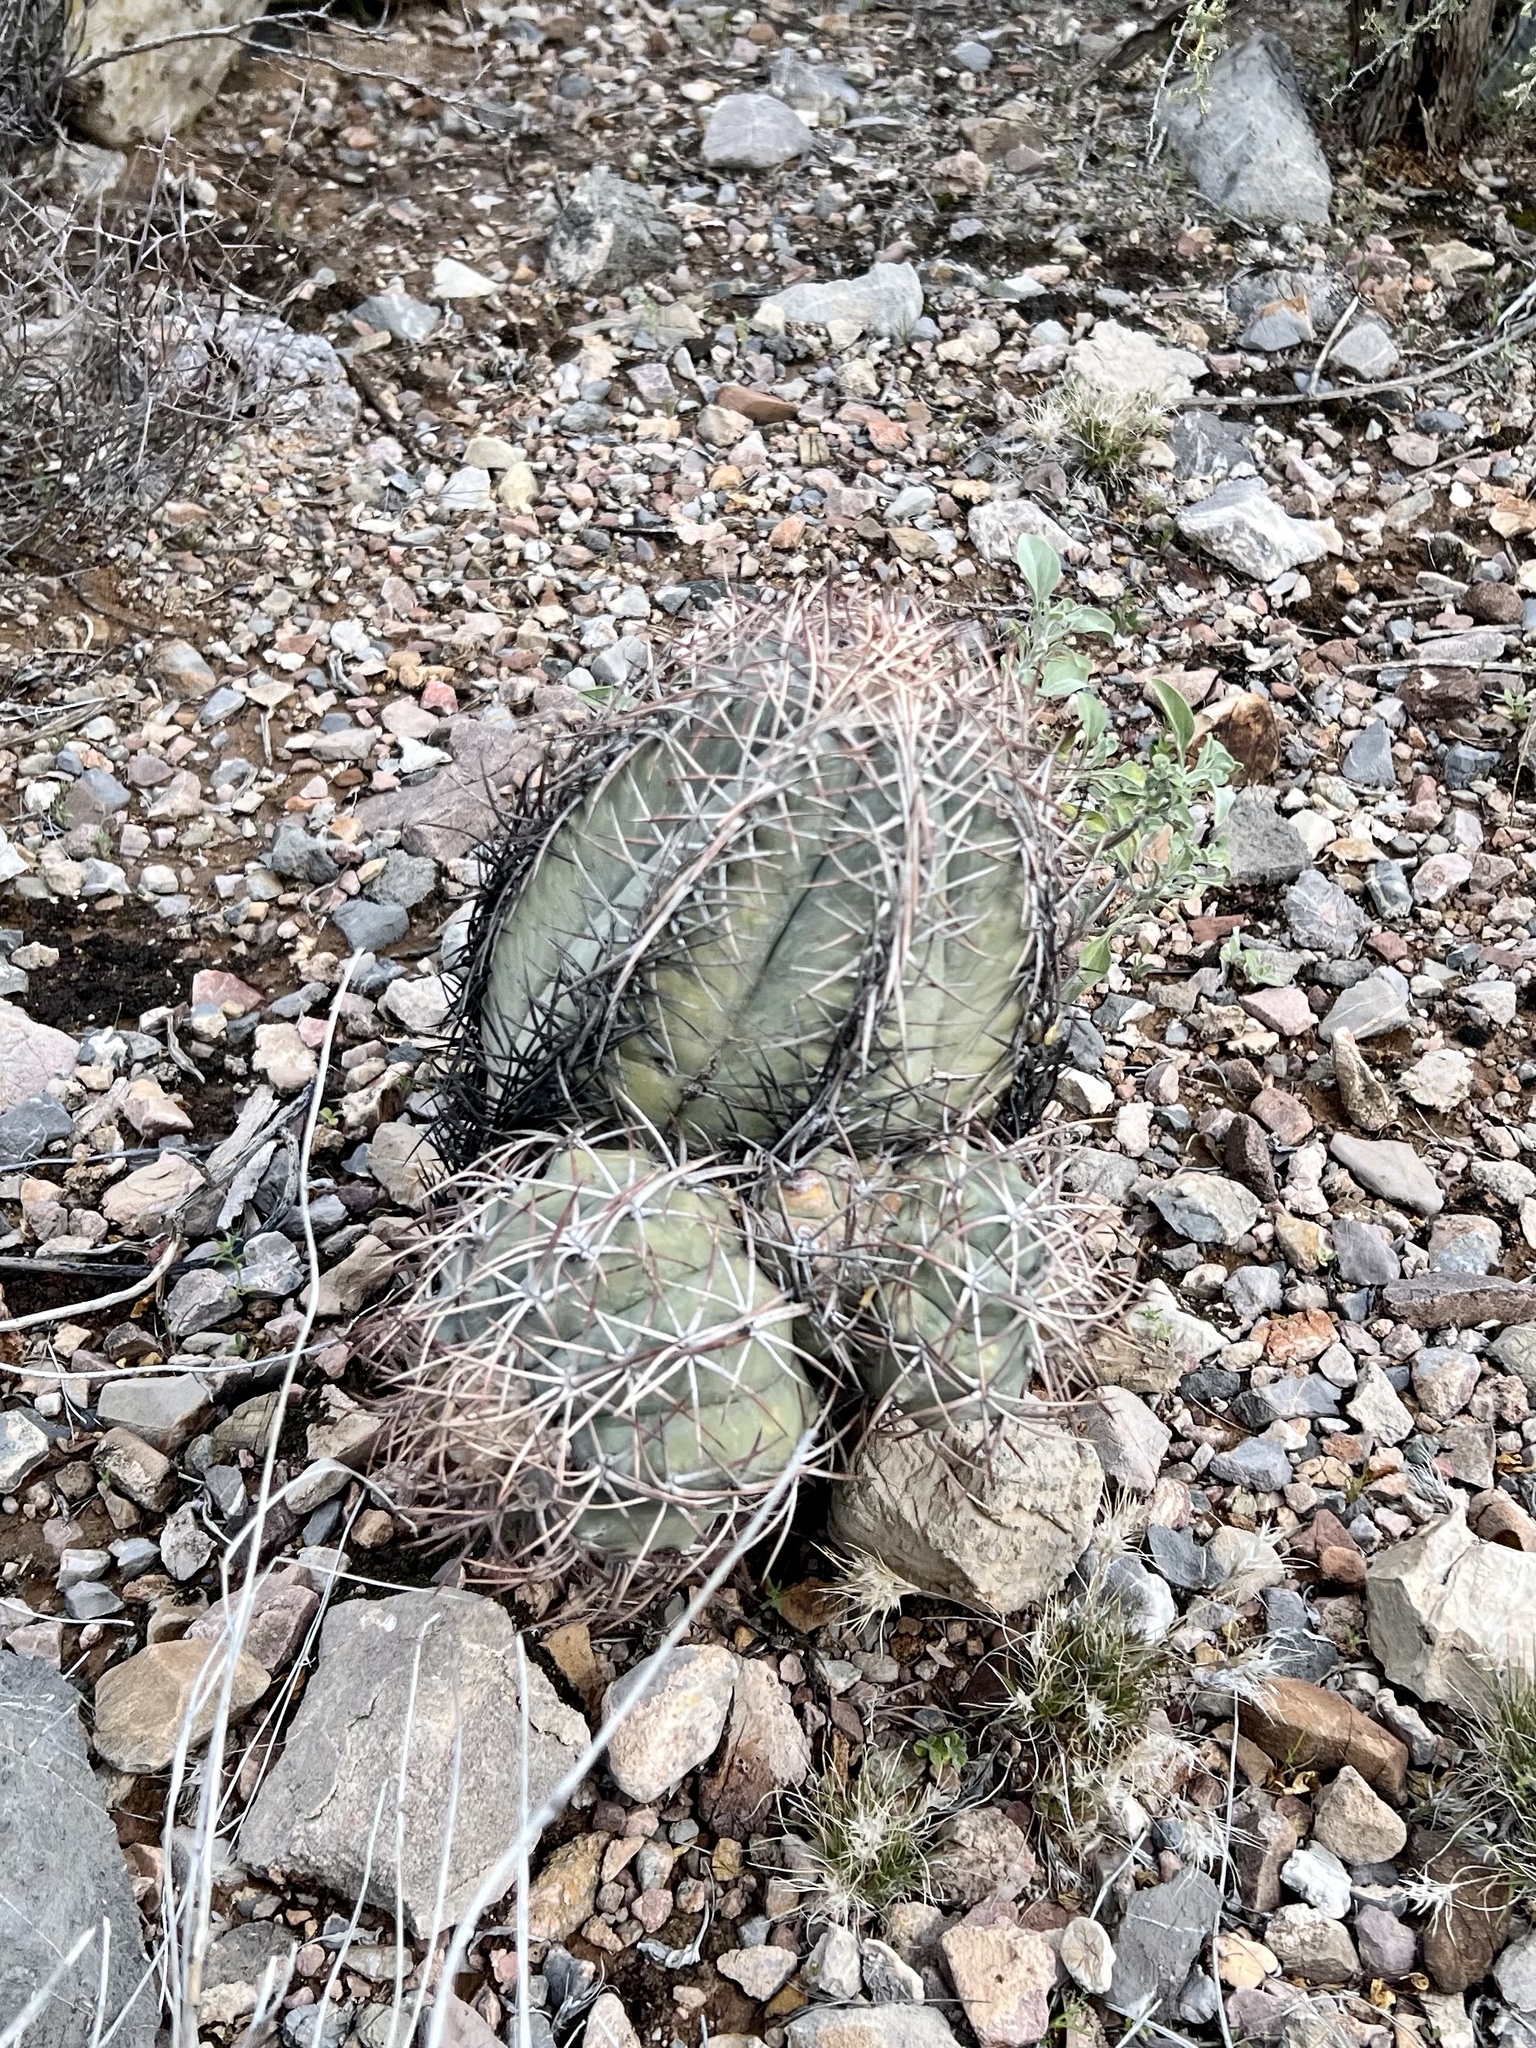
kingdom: Plantae
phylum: Tracheophyta
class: Magnoliopsida
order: Caryophyllales
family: Cactaceae
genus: Echinocactus
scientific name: Echinocactus horizonthalonius
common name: Devilshead
